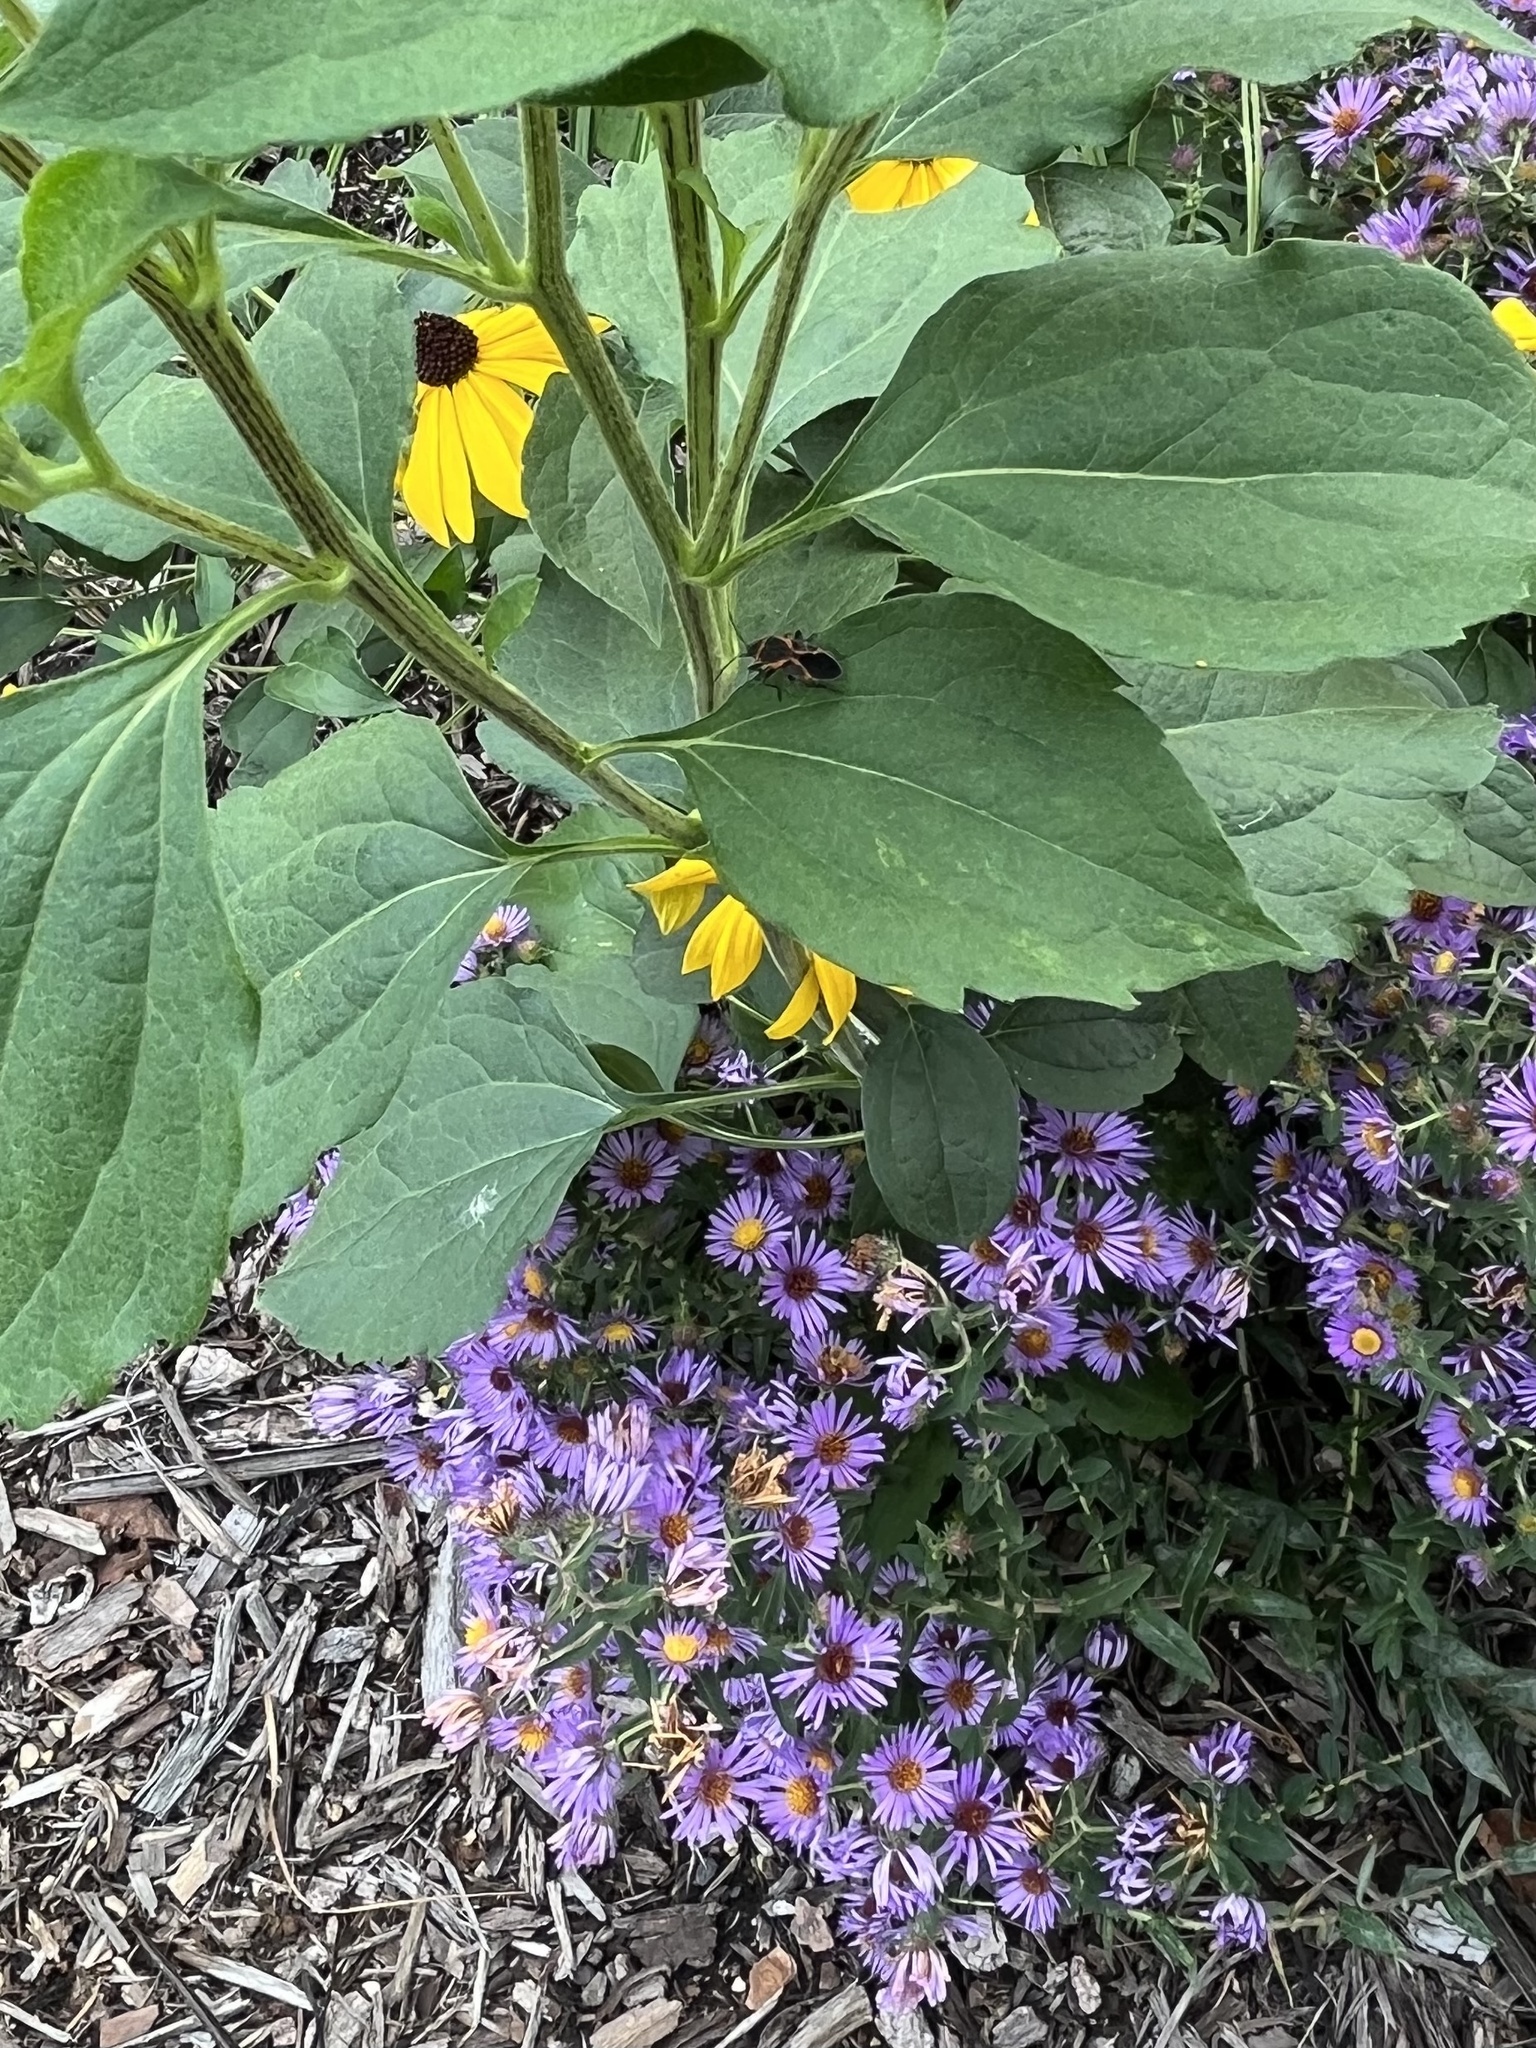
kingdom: Animalia
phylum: Arthropoda
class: Insecta
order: Hemiptera
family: Lygaeidae
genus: Lygaeus
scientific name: Lygaeus kalmii
